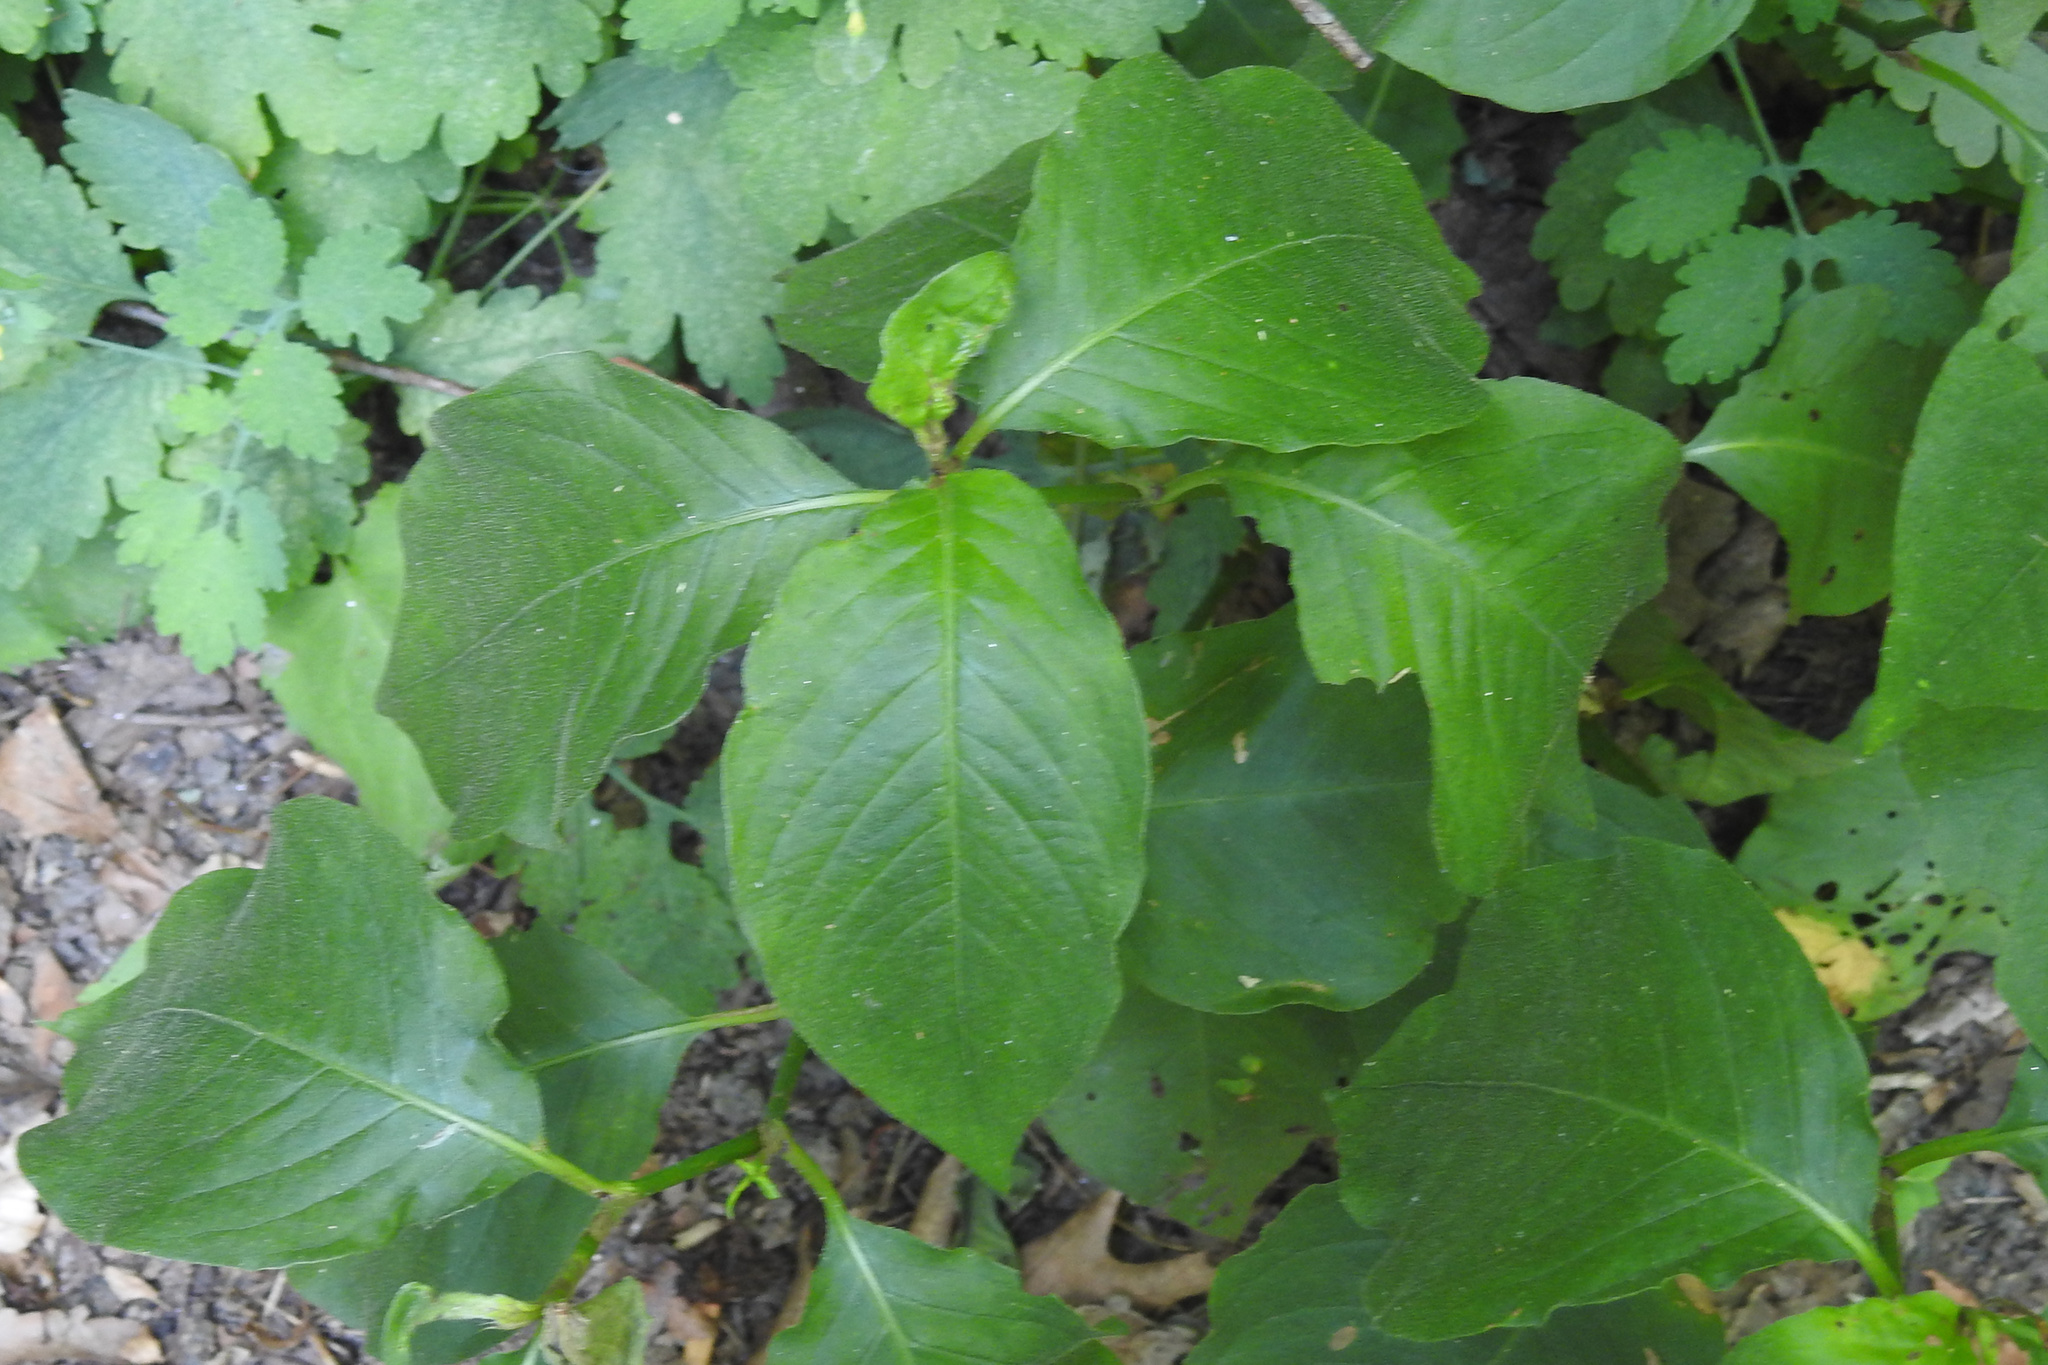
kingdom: Plantae
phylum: Tracheophyta
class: Magnoliopsida
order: Caryophyllales
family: Polygonaceae
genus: Persicaria
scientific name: Persicaria virginiana
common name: Jumpseed
